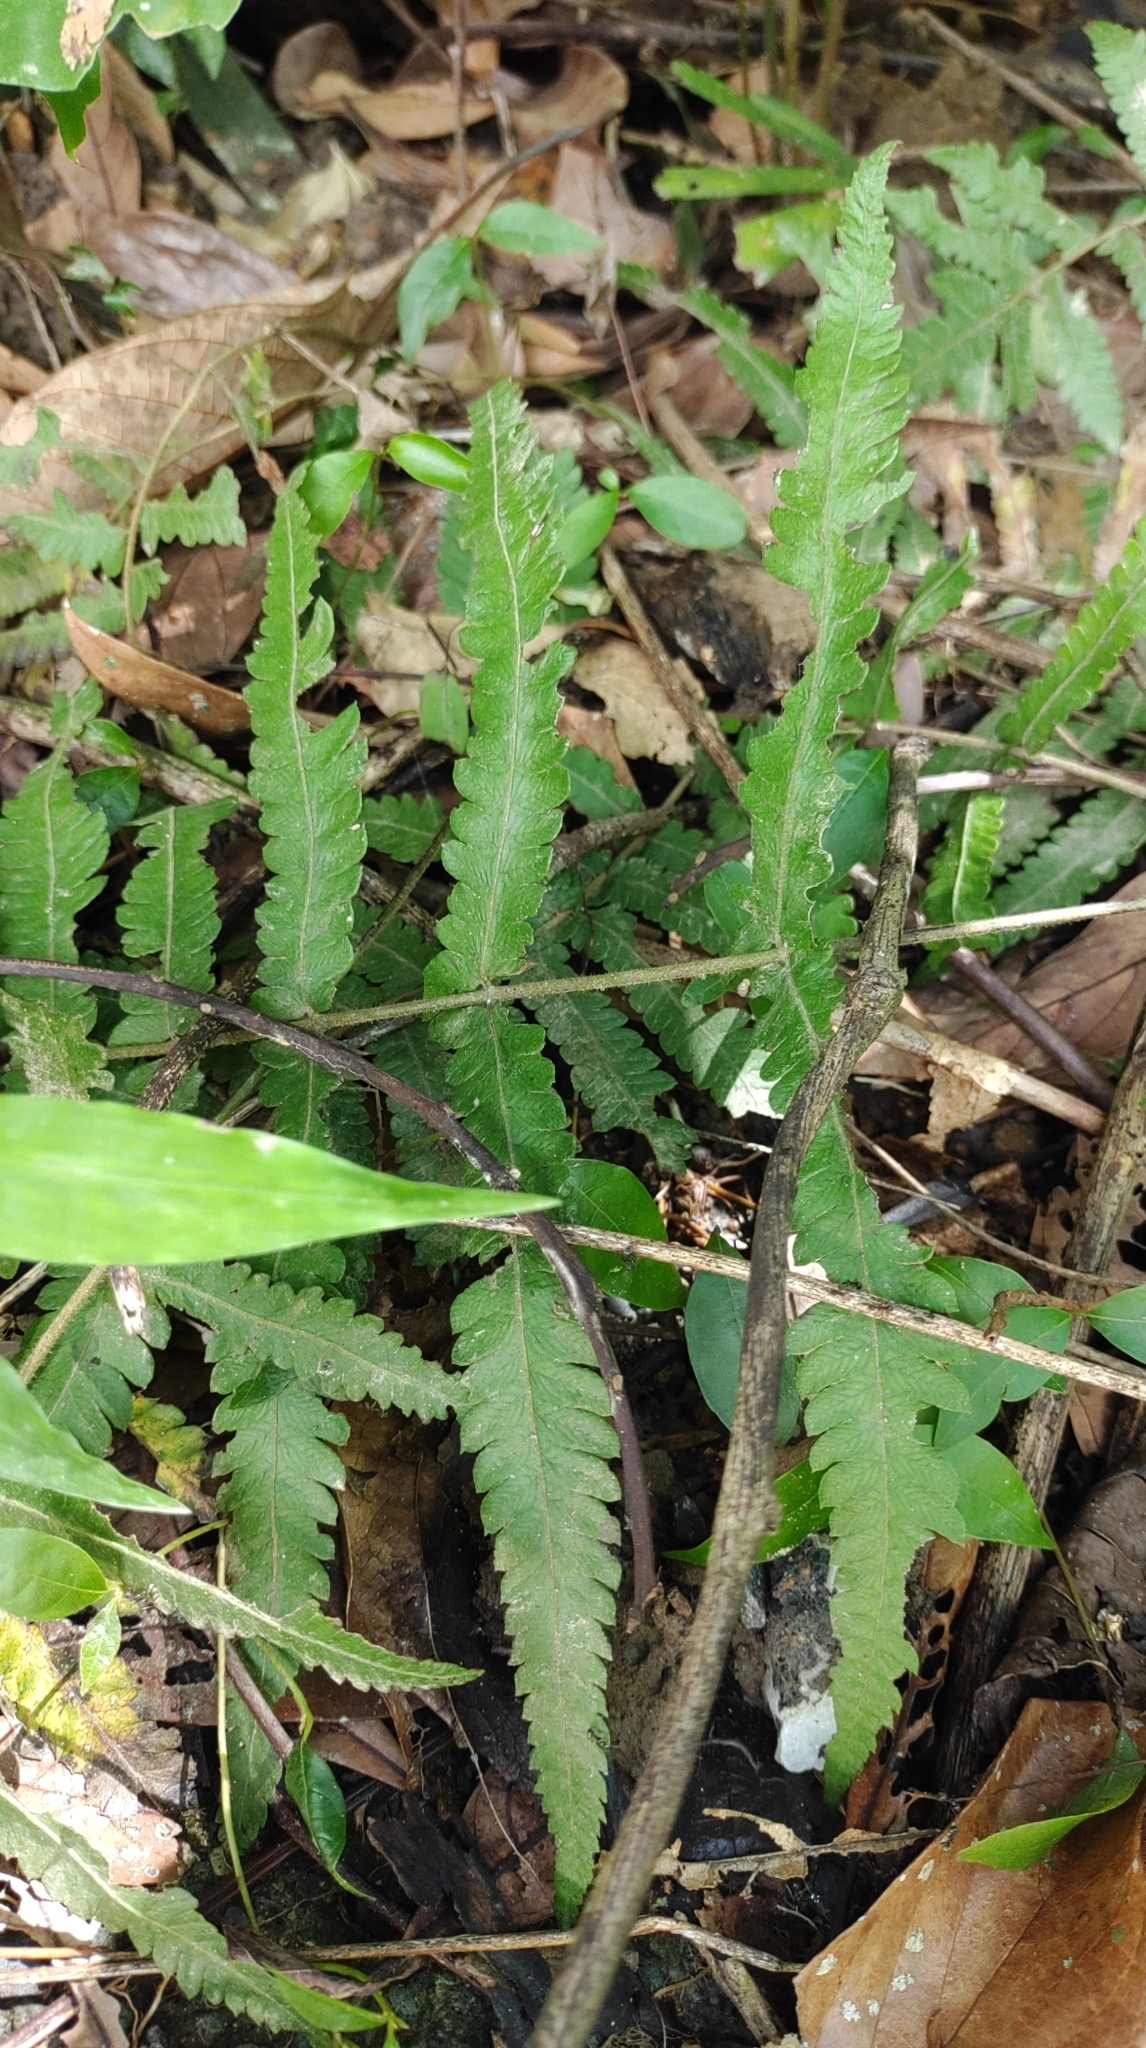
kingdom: Plantae
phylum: Tracheophyta
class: Polypodiopsida
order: Polypodiales
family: Thelypteridaceae
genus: Christella
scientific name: Christella acuminata
